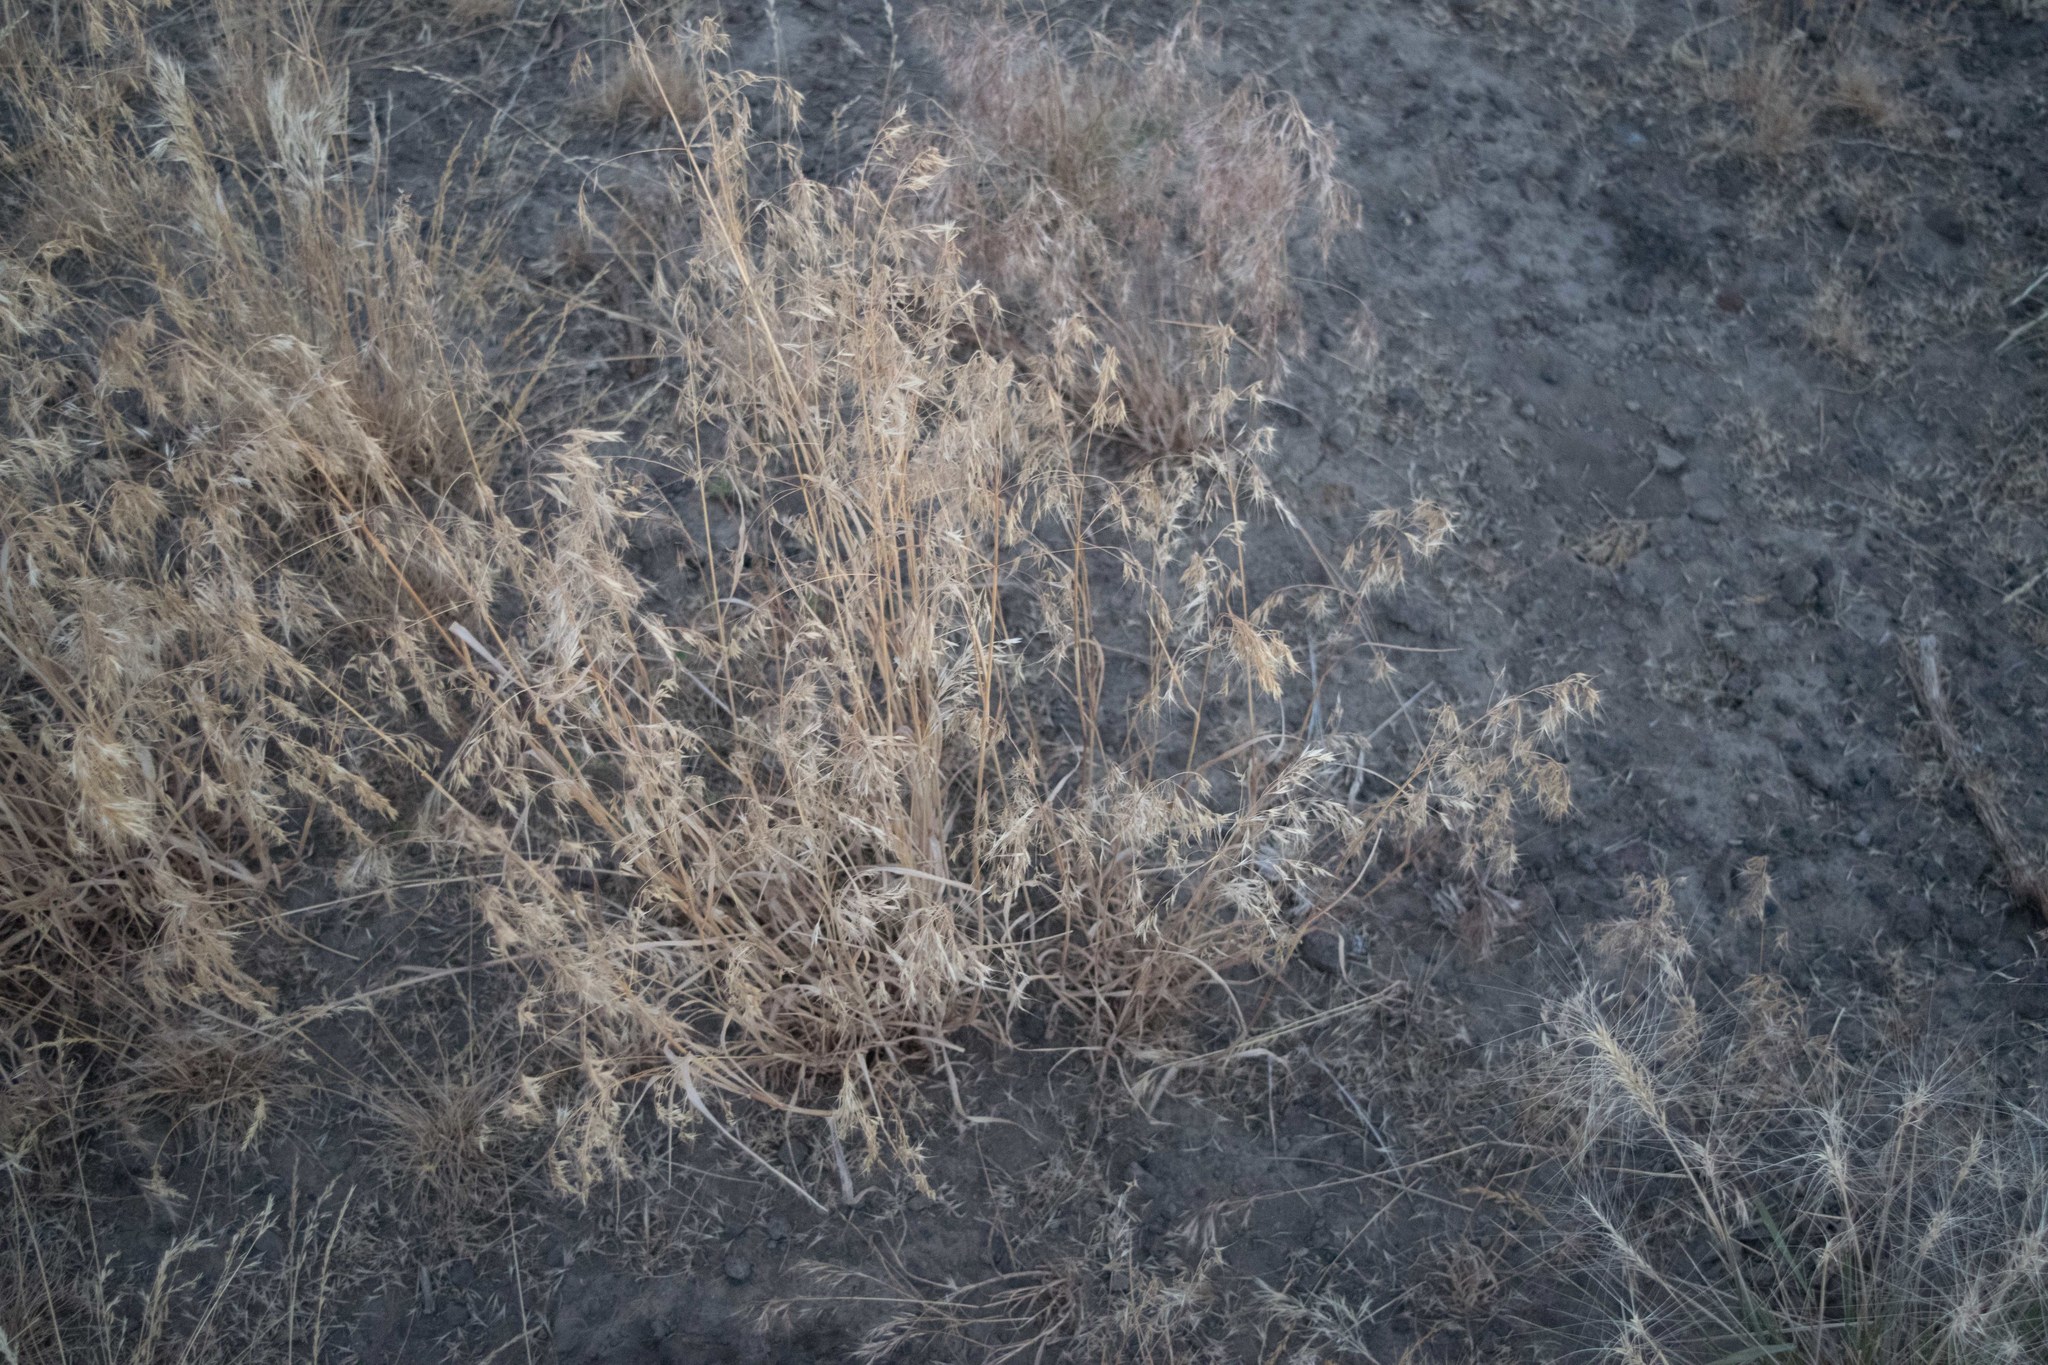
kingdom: Plantae
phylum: Tracheophyta
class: Liliopsida
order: Poales
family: Poaceae
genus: Bromus
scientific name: Bromus tectorum
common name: Cheatgrass
